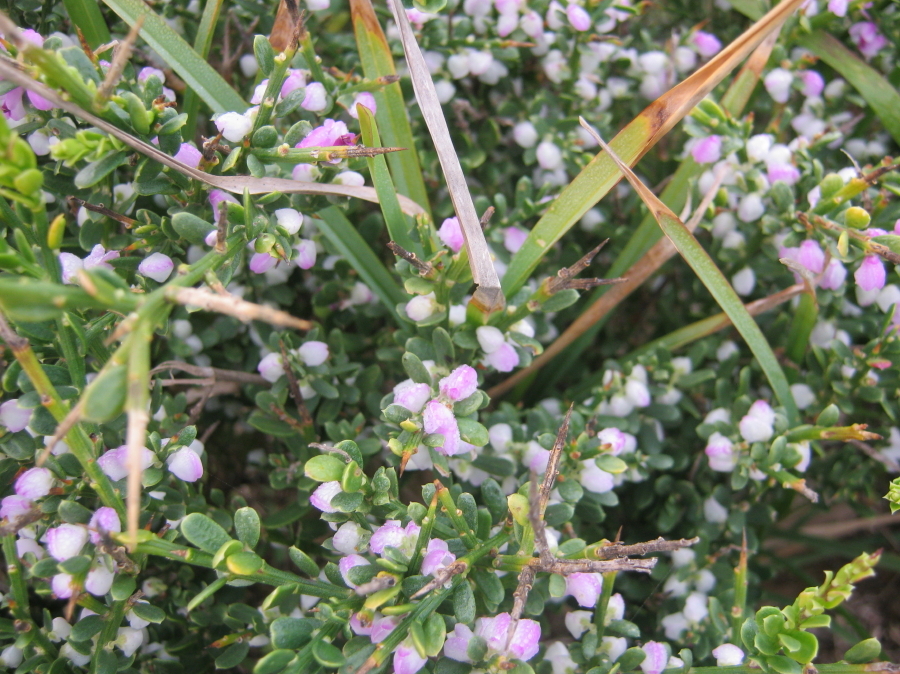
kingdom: Plantae
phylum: Tracheophyta
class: Magnoliopsida
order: Fabales
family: Polygalaceae
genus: Muraltia
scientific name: Muraltia spinosa
